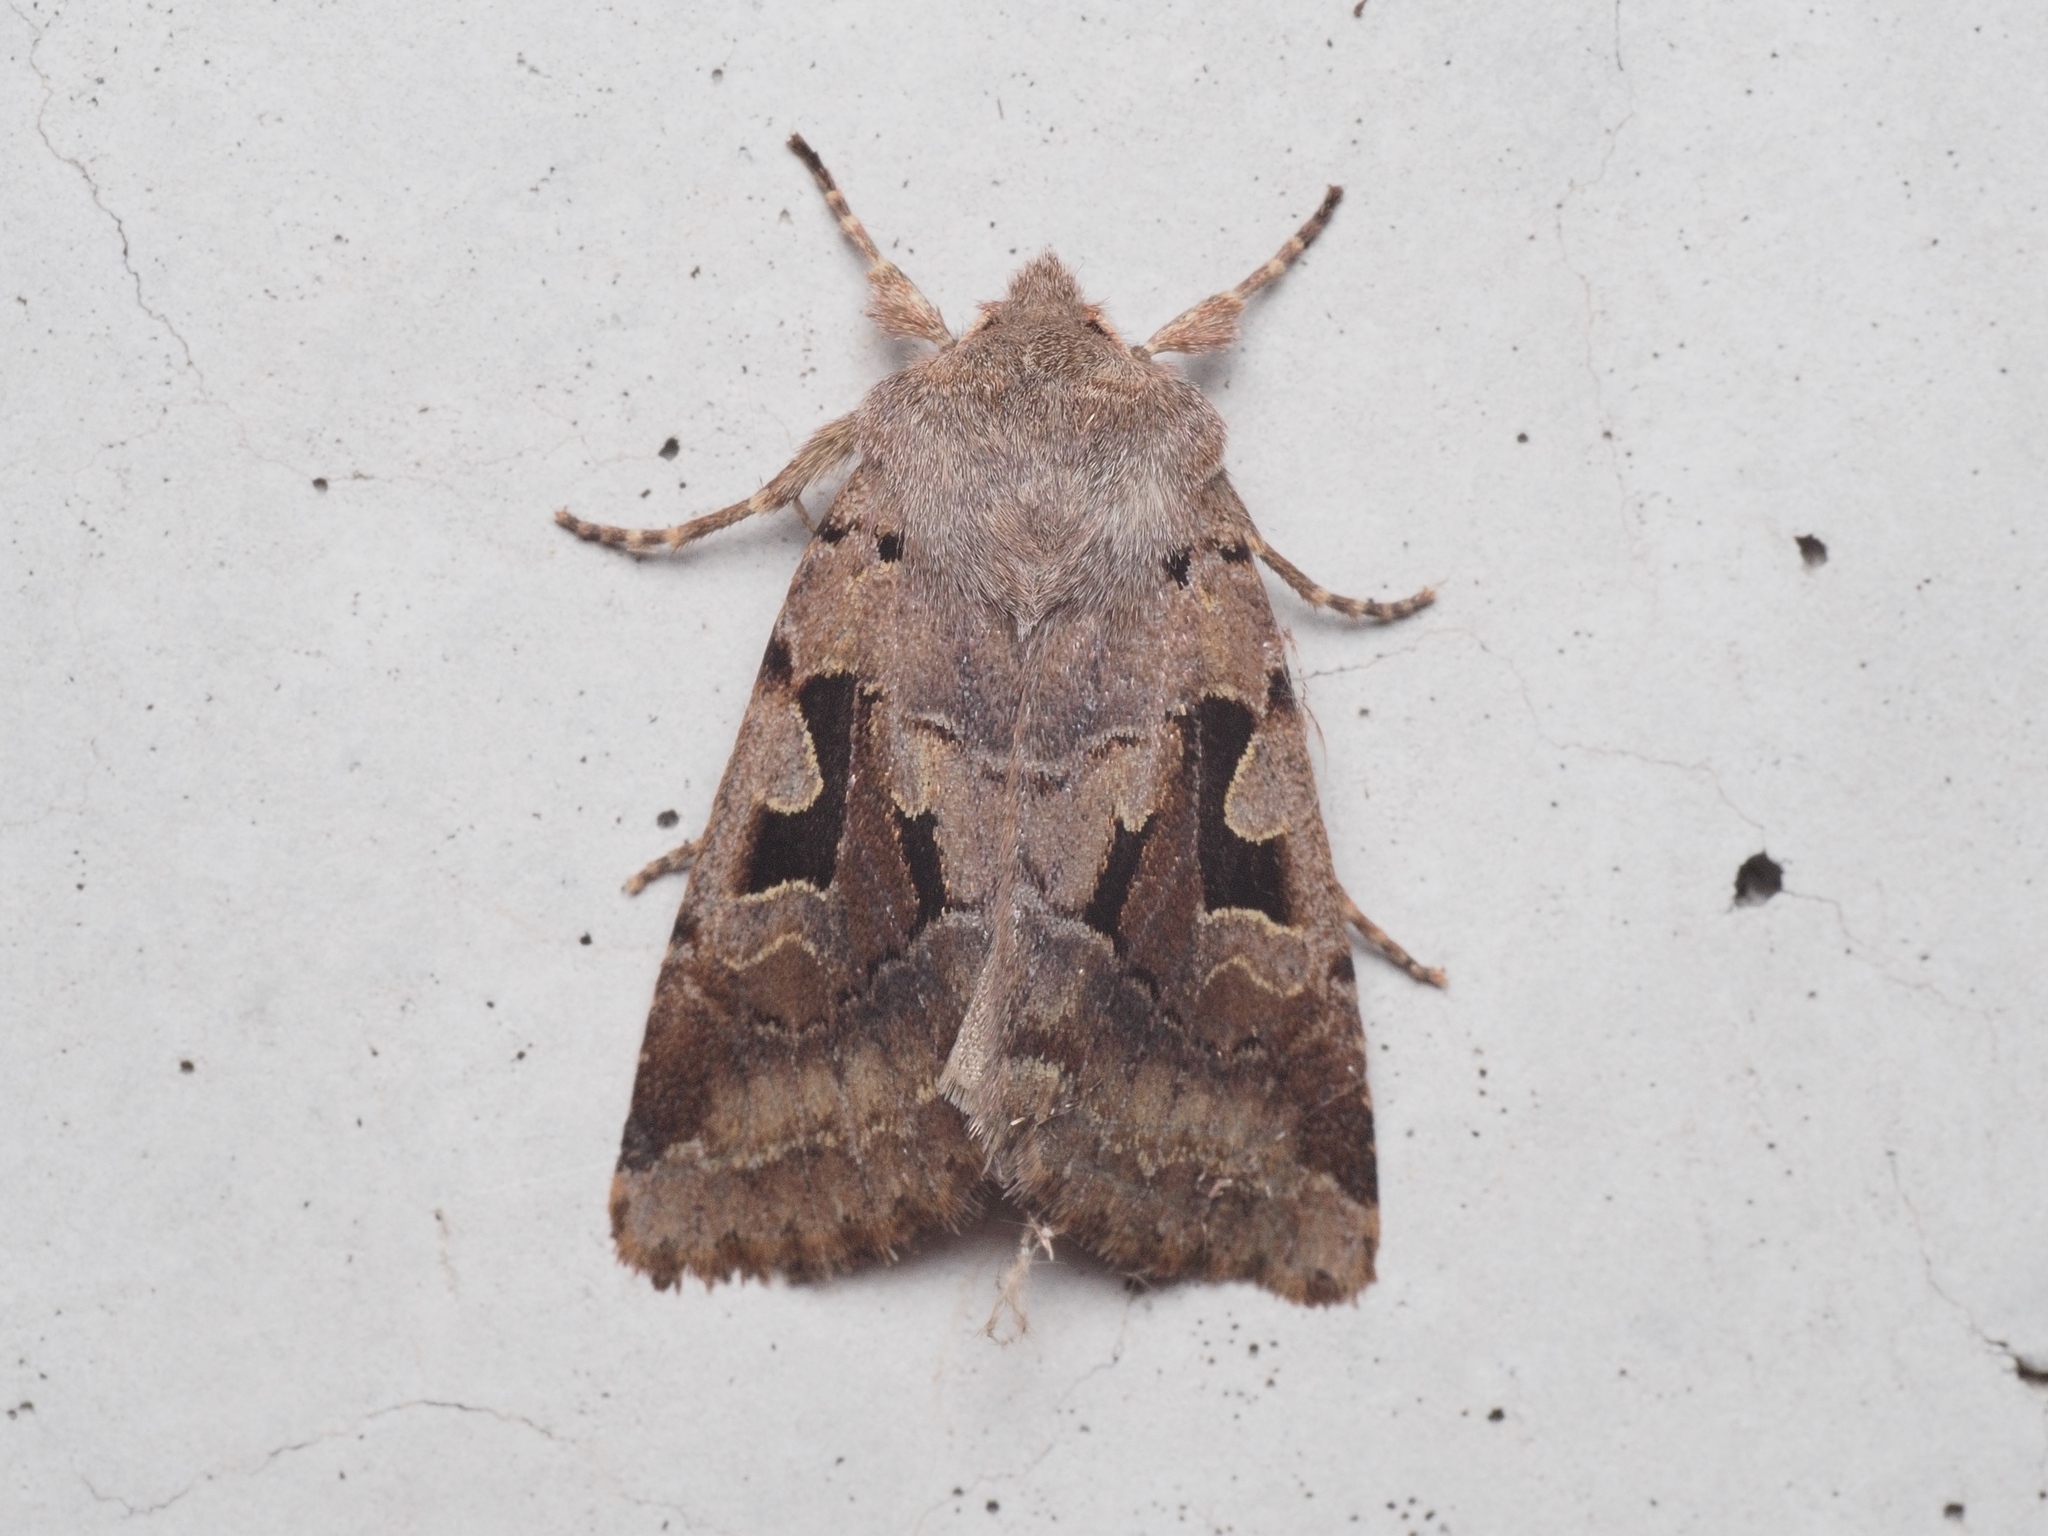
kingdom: Animalia
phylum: Arthropoda
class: Insecta
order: Lepidoptera
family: Noctuidae
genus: Orthosia
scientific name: Orthosia gothica
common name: Hebrew character
